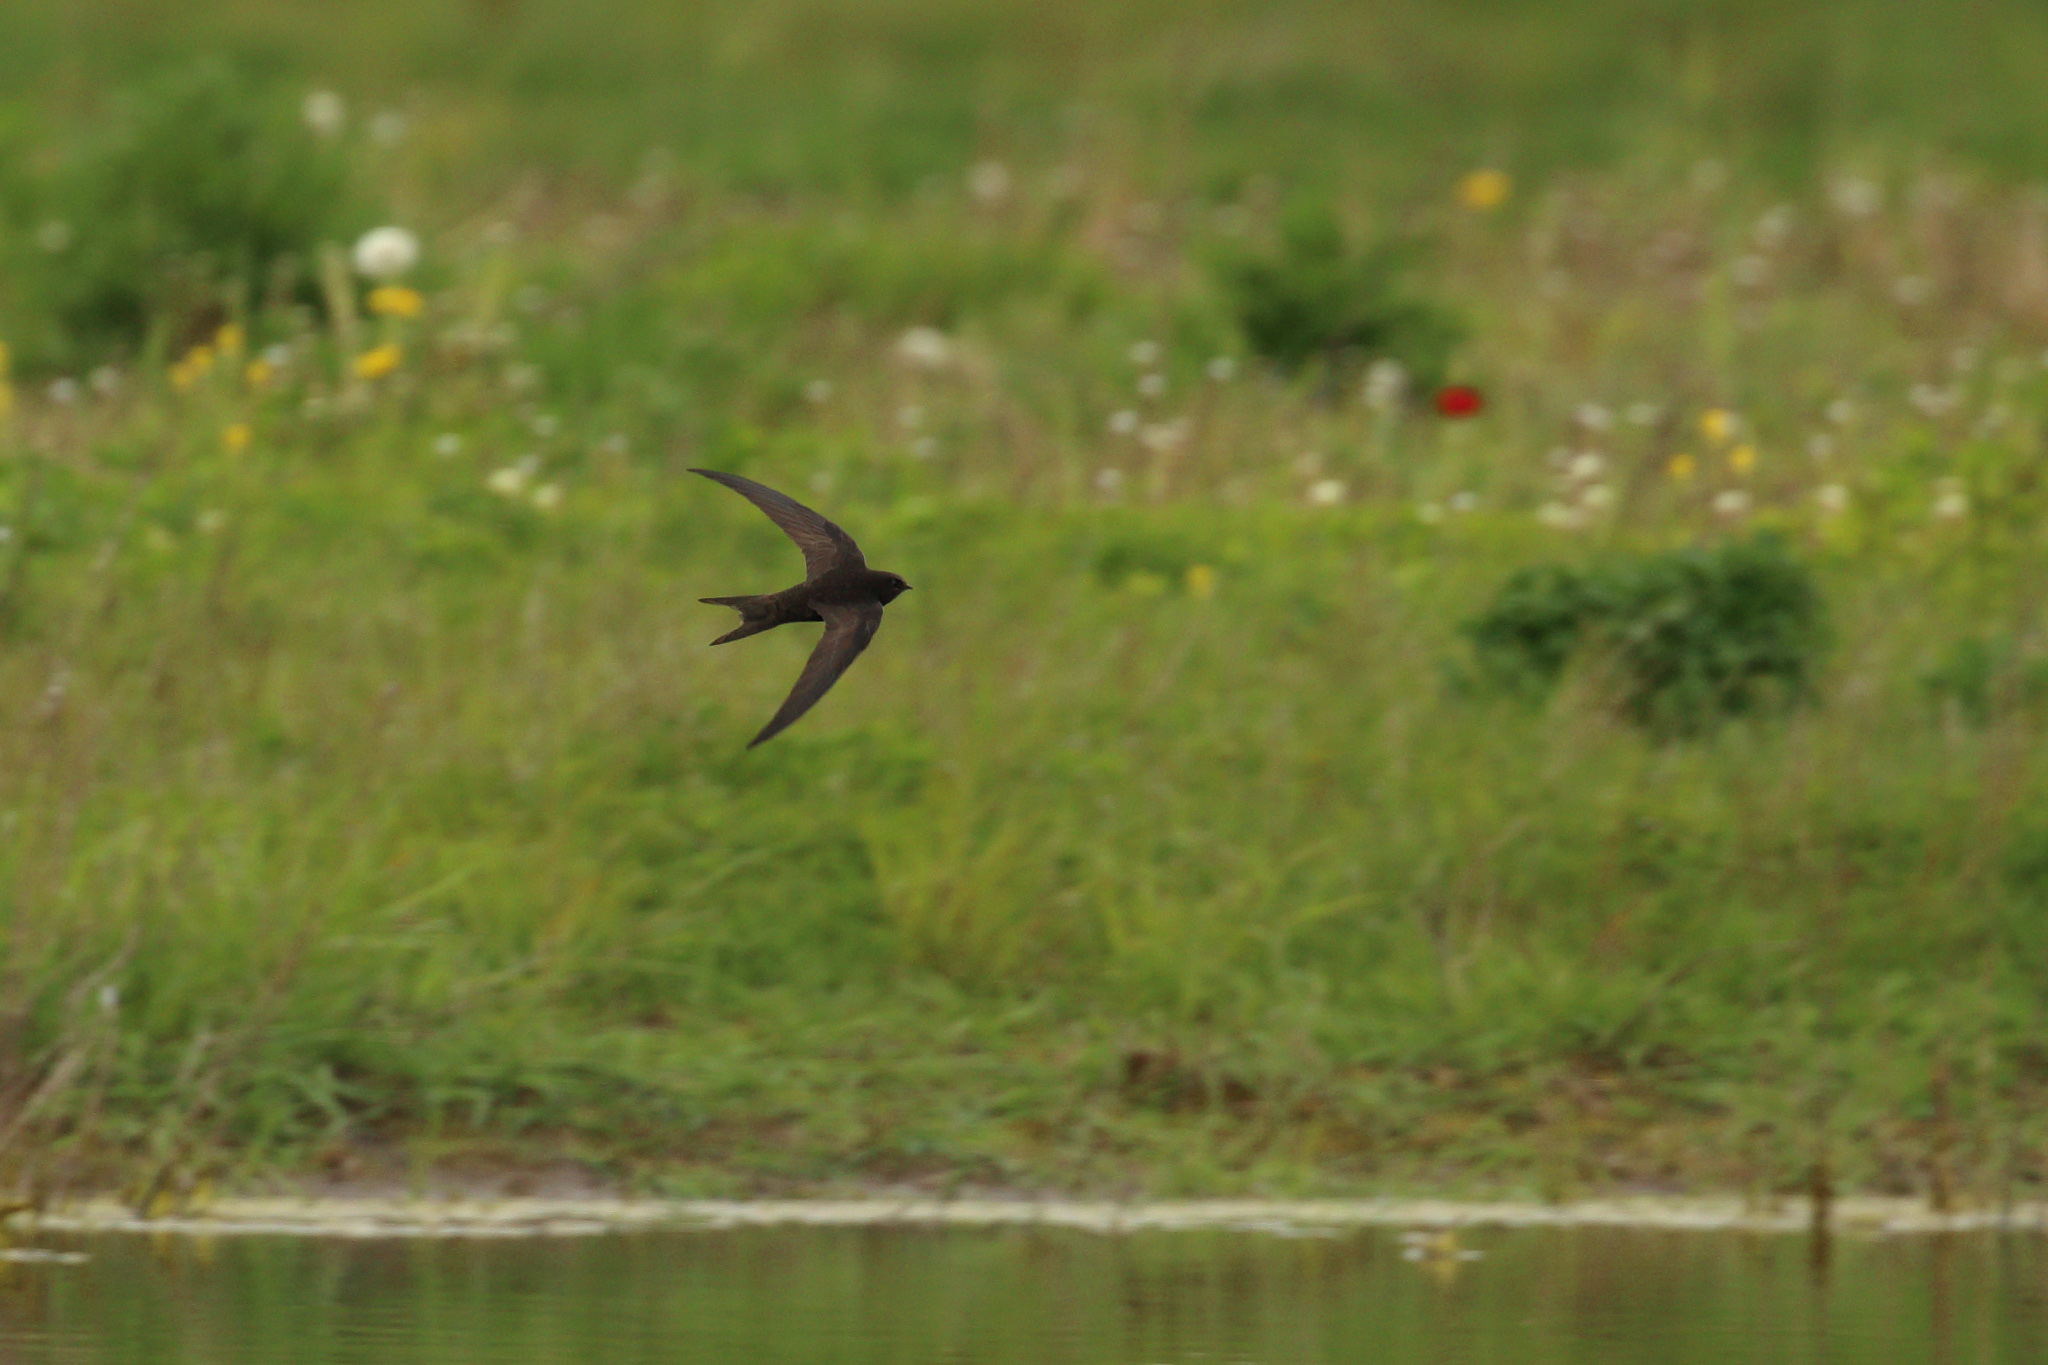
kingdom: Animalia
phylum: Chordata
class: Aves
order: Apodiformes
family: Apodidae
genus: Apus
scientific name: Apus apus
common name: Common swift
